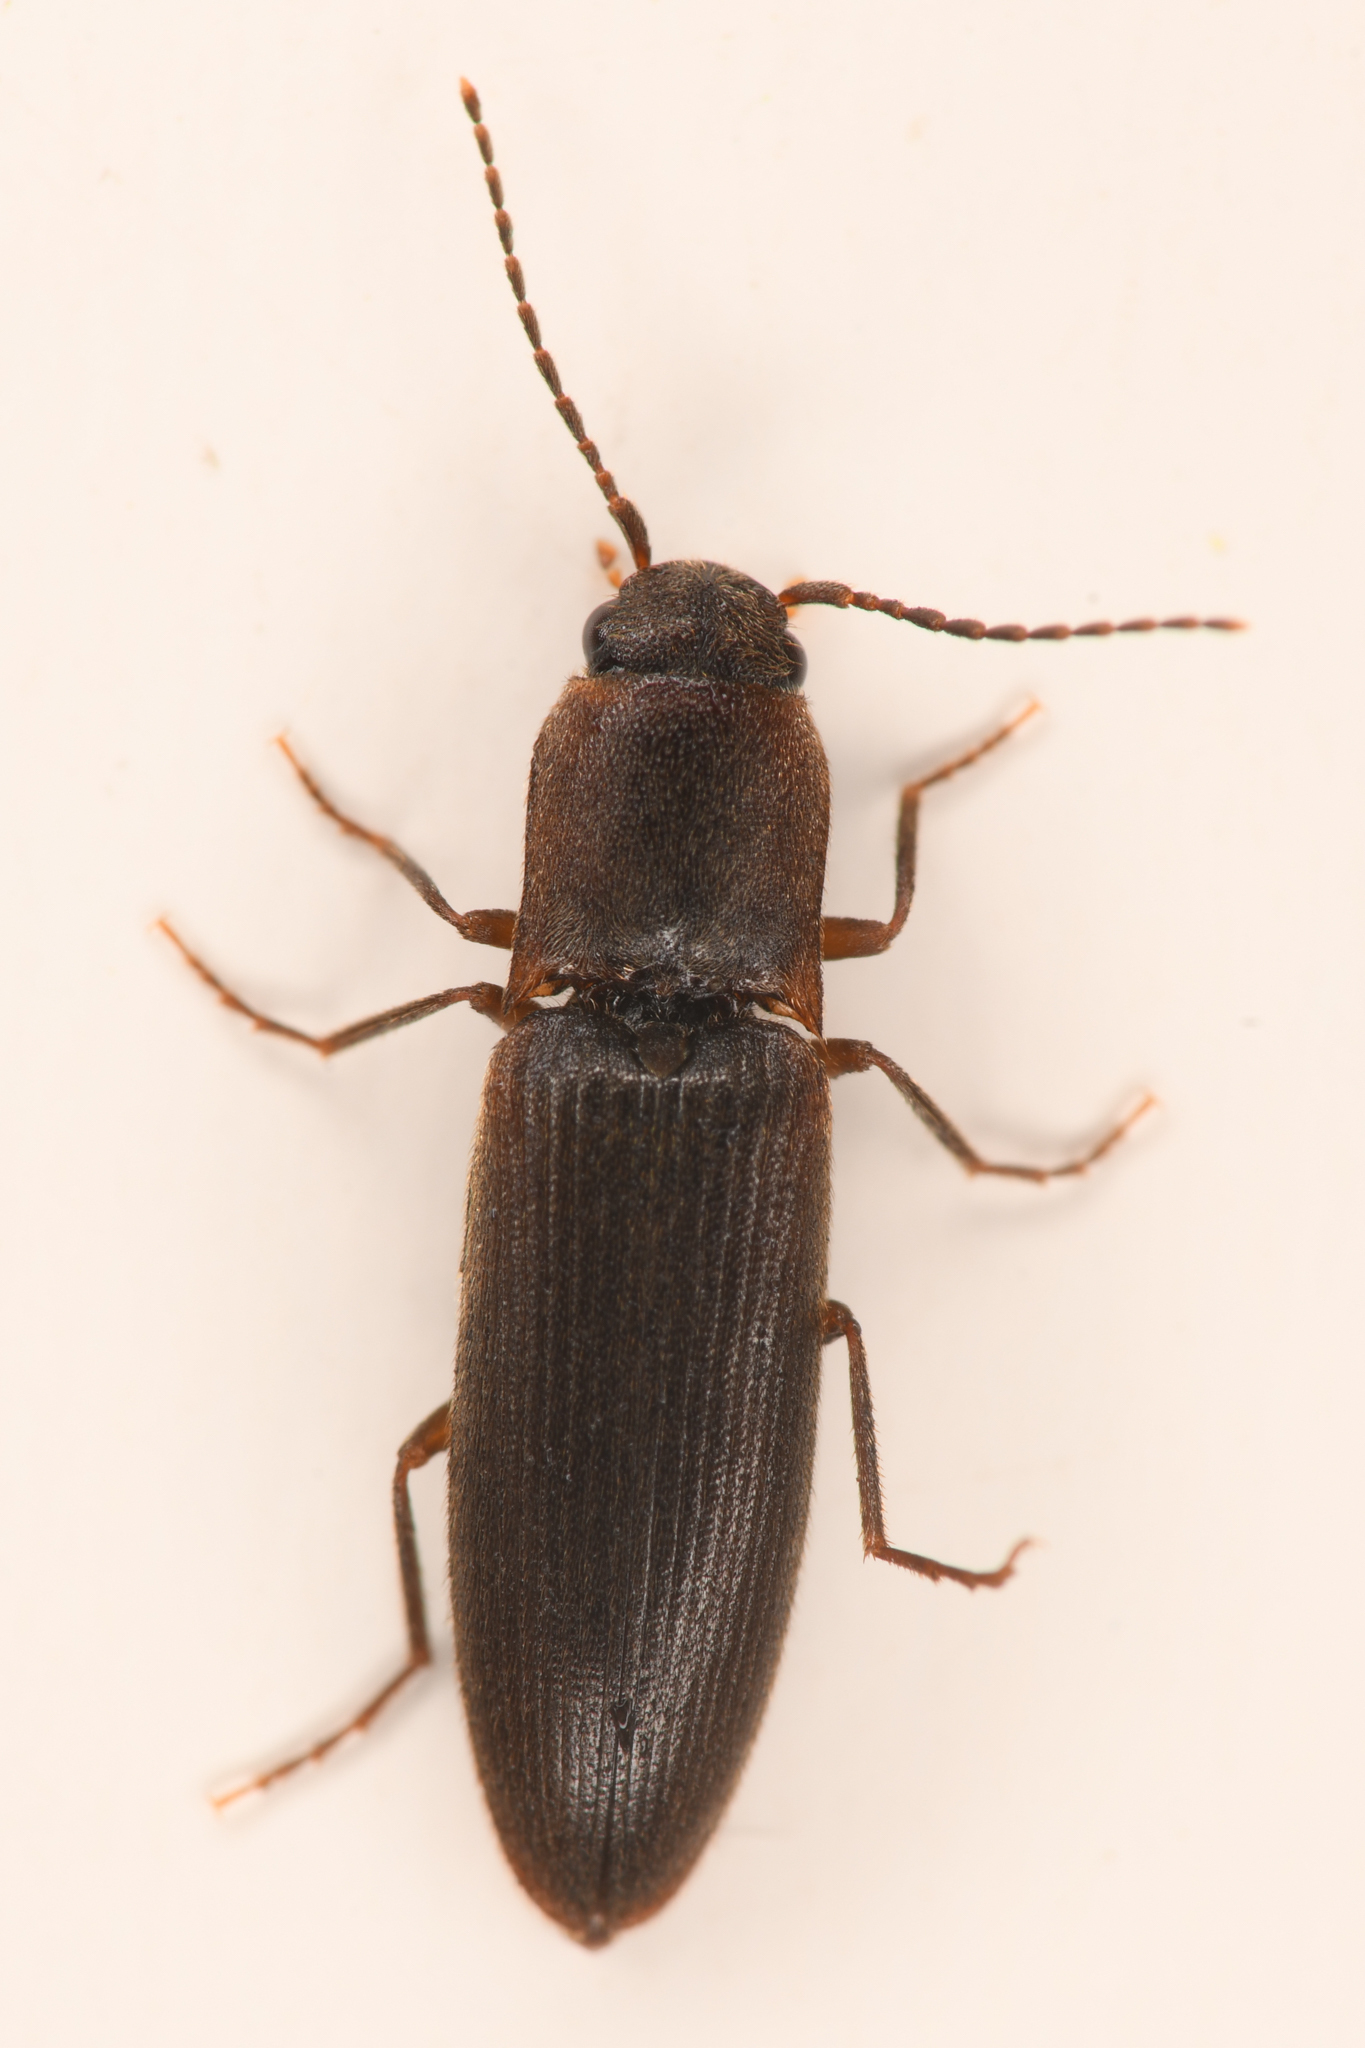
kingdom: Animalia
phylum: Arthropoda
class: Insecta
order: Coleoptera
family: Elateridae
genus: Dalopius
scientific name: Dalopius spretus
